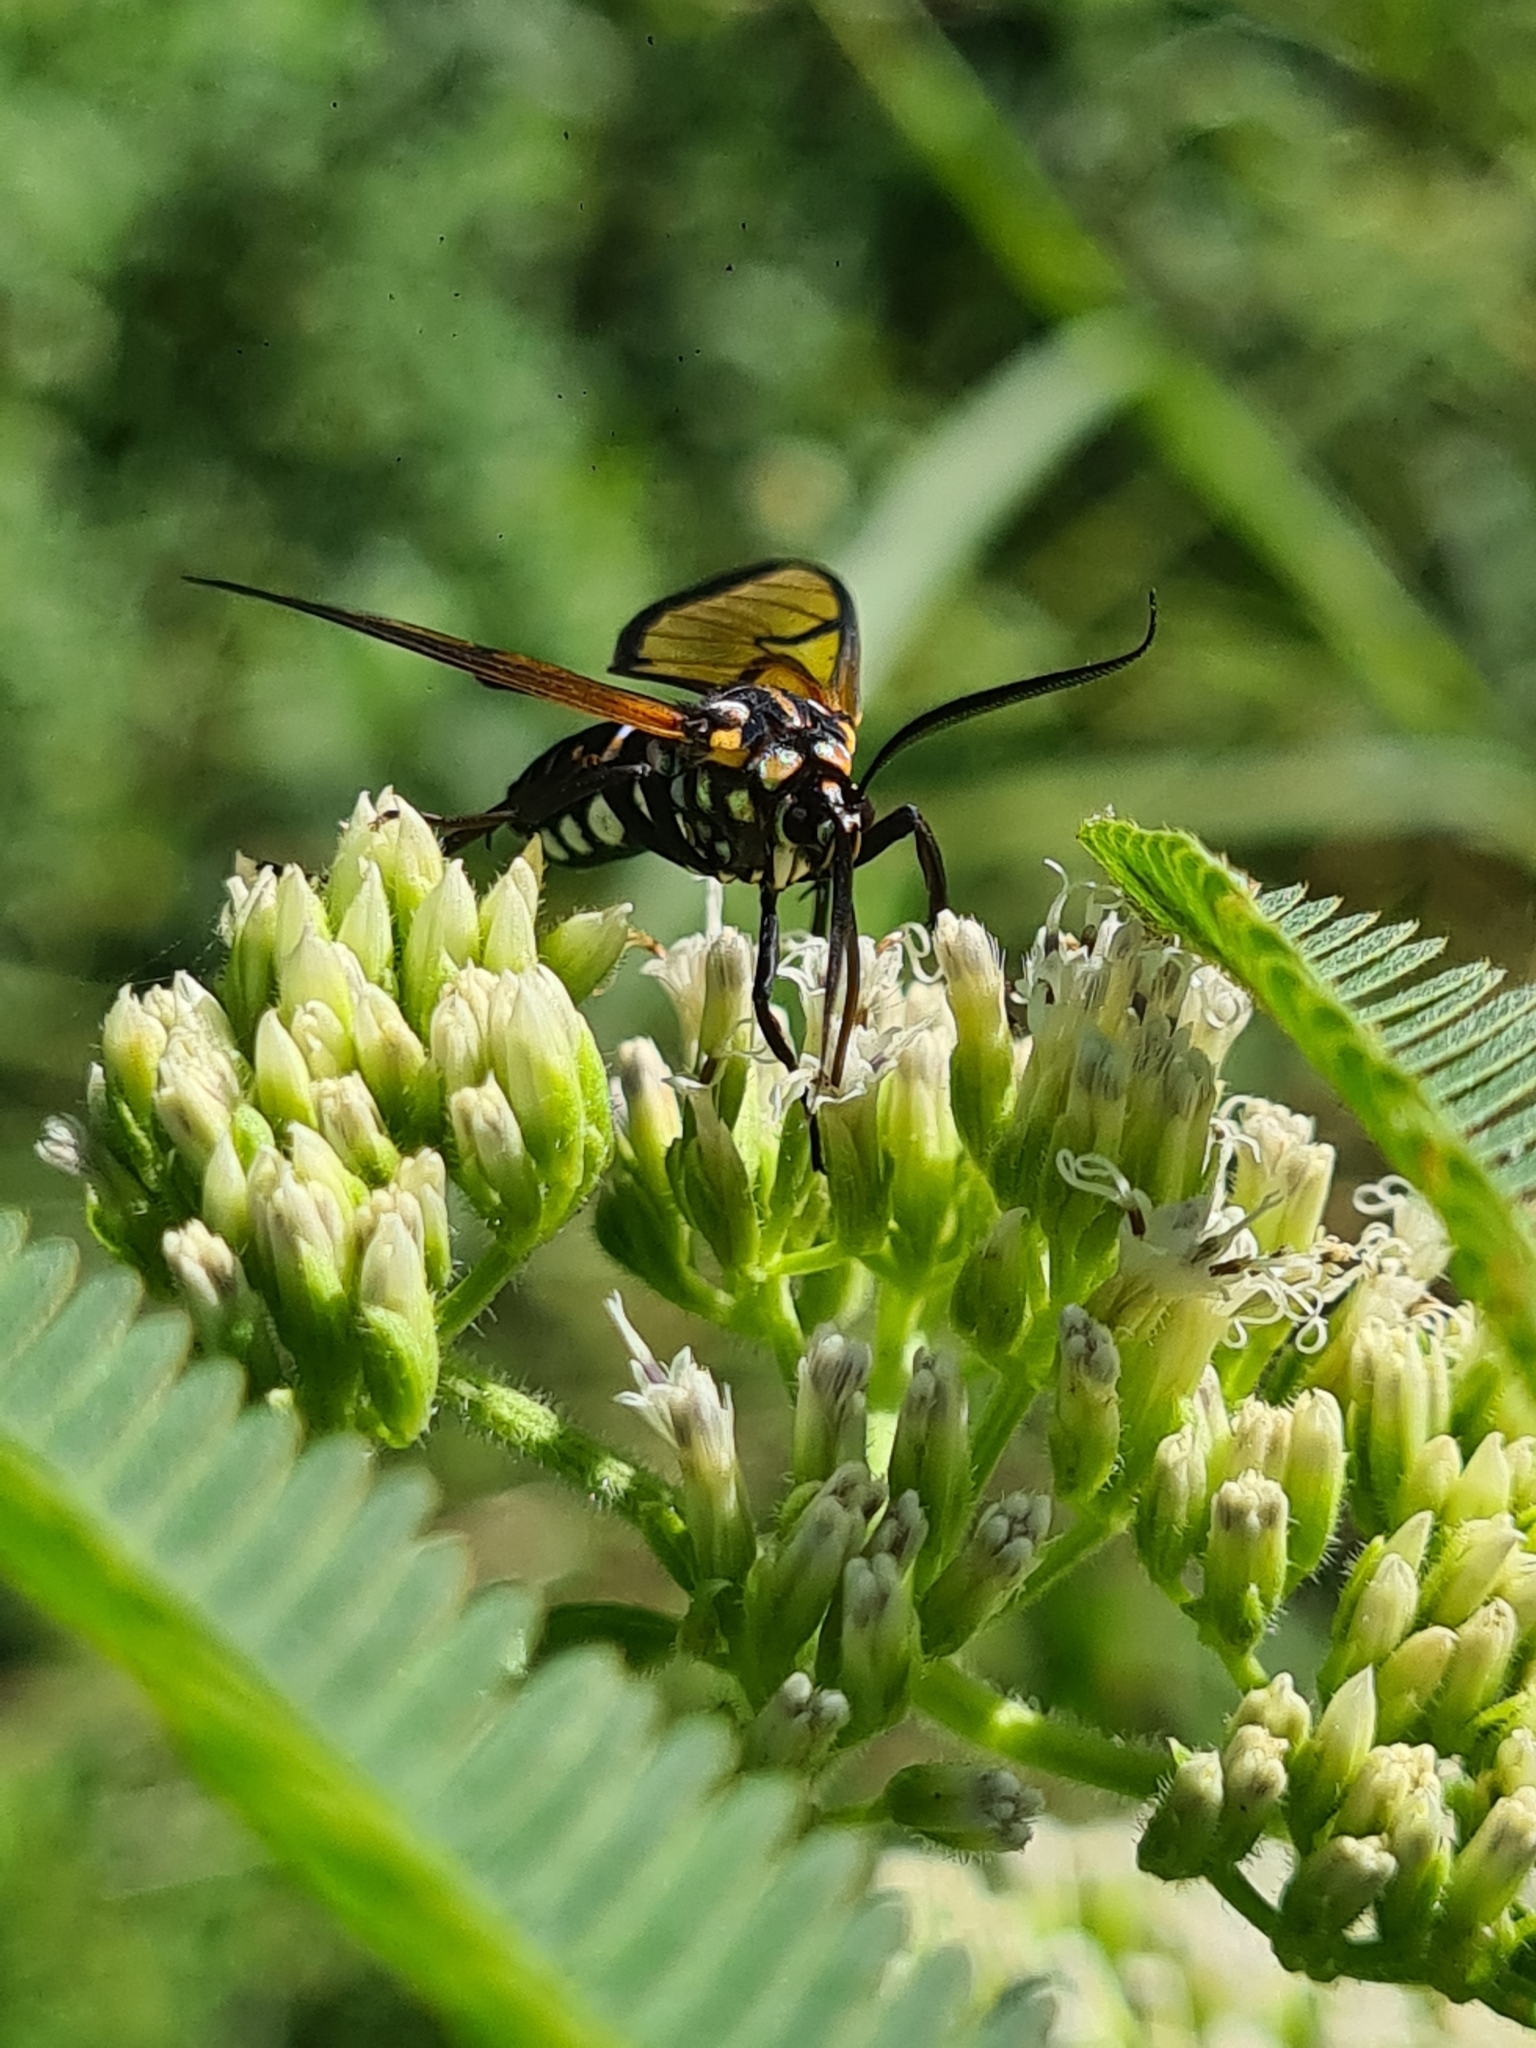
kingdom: Animalia
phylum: Arthropoda
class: Insecta
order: Lepidoptera
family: Erebidae
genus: Trichura
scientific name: Trichura cerberus
